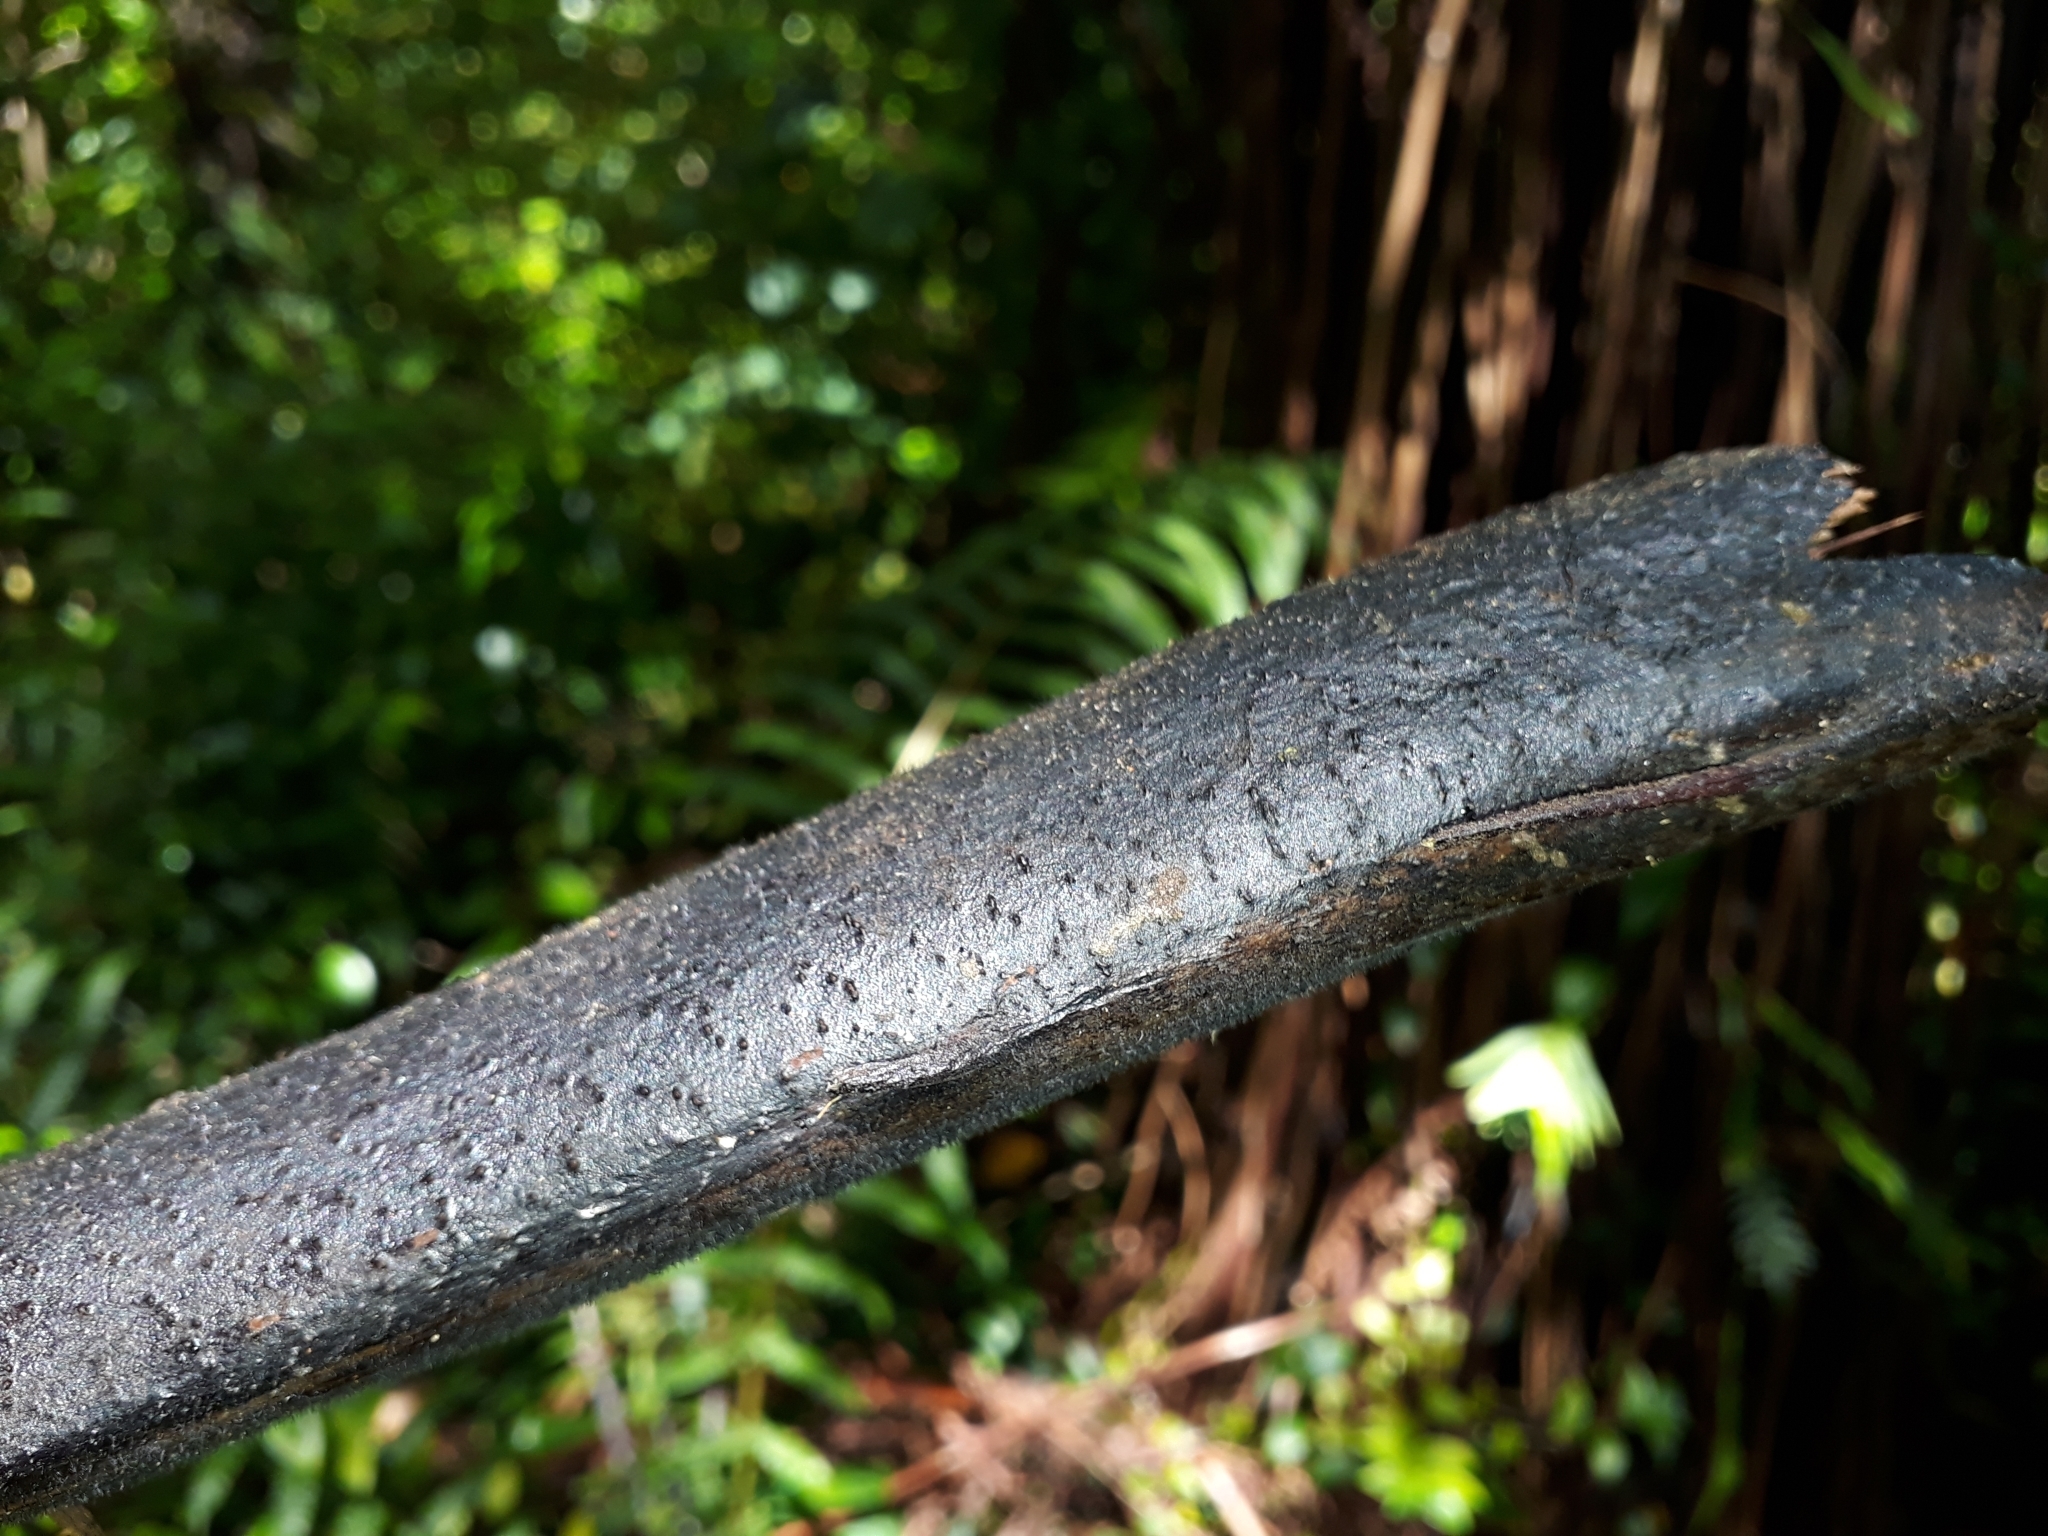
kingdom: Plantae
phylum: Tracheophyta
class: Polypodiopsida
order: Cyatheales
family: Cyatheaceae
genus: Cyathea
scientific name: Cyathea cunninghamii
